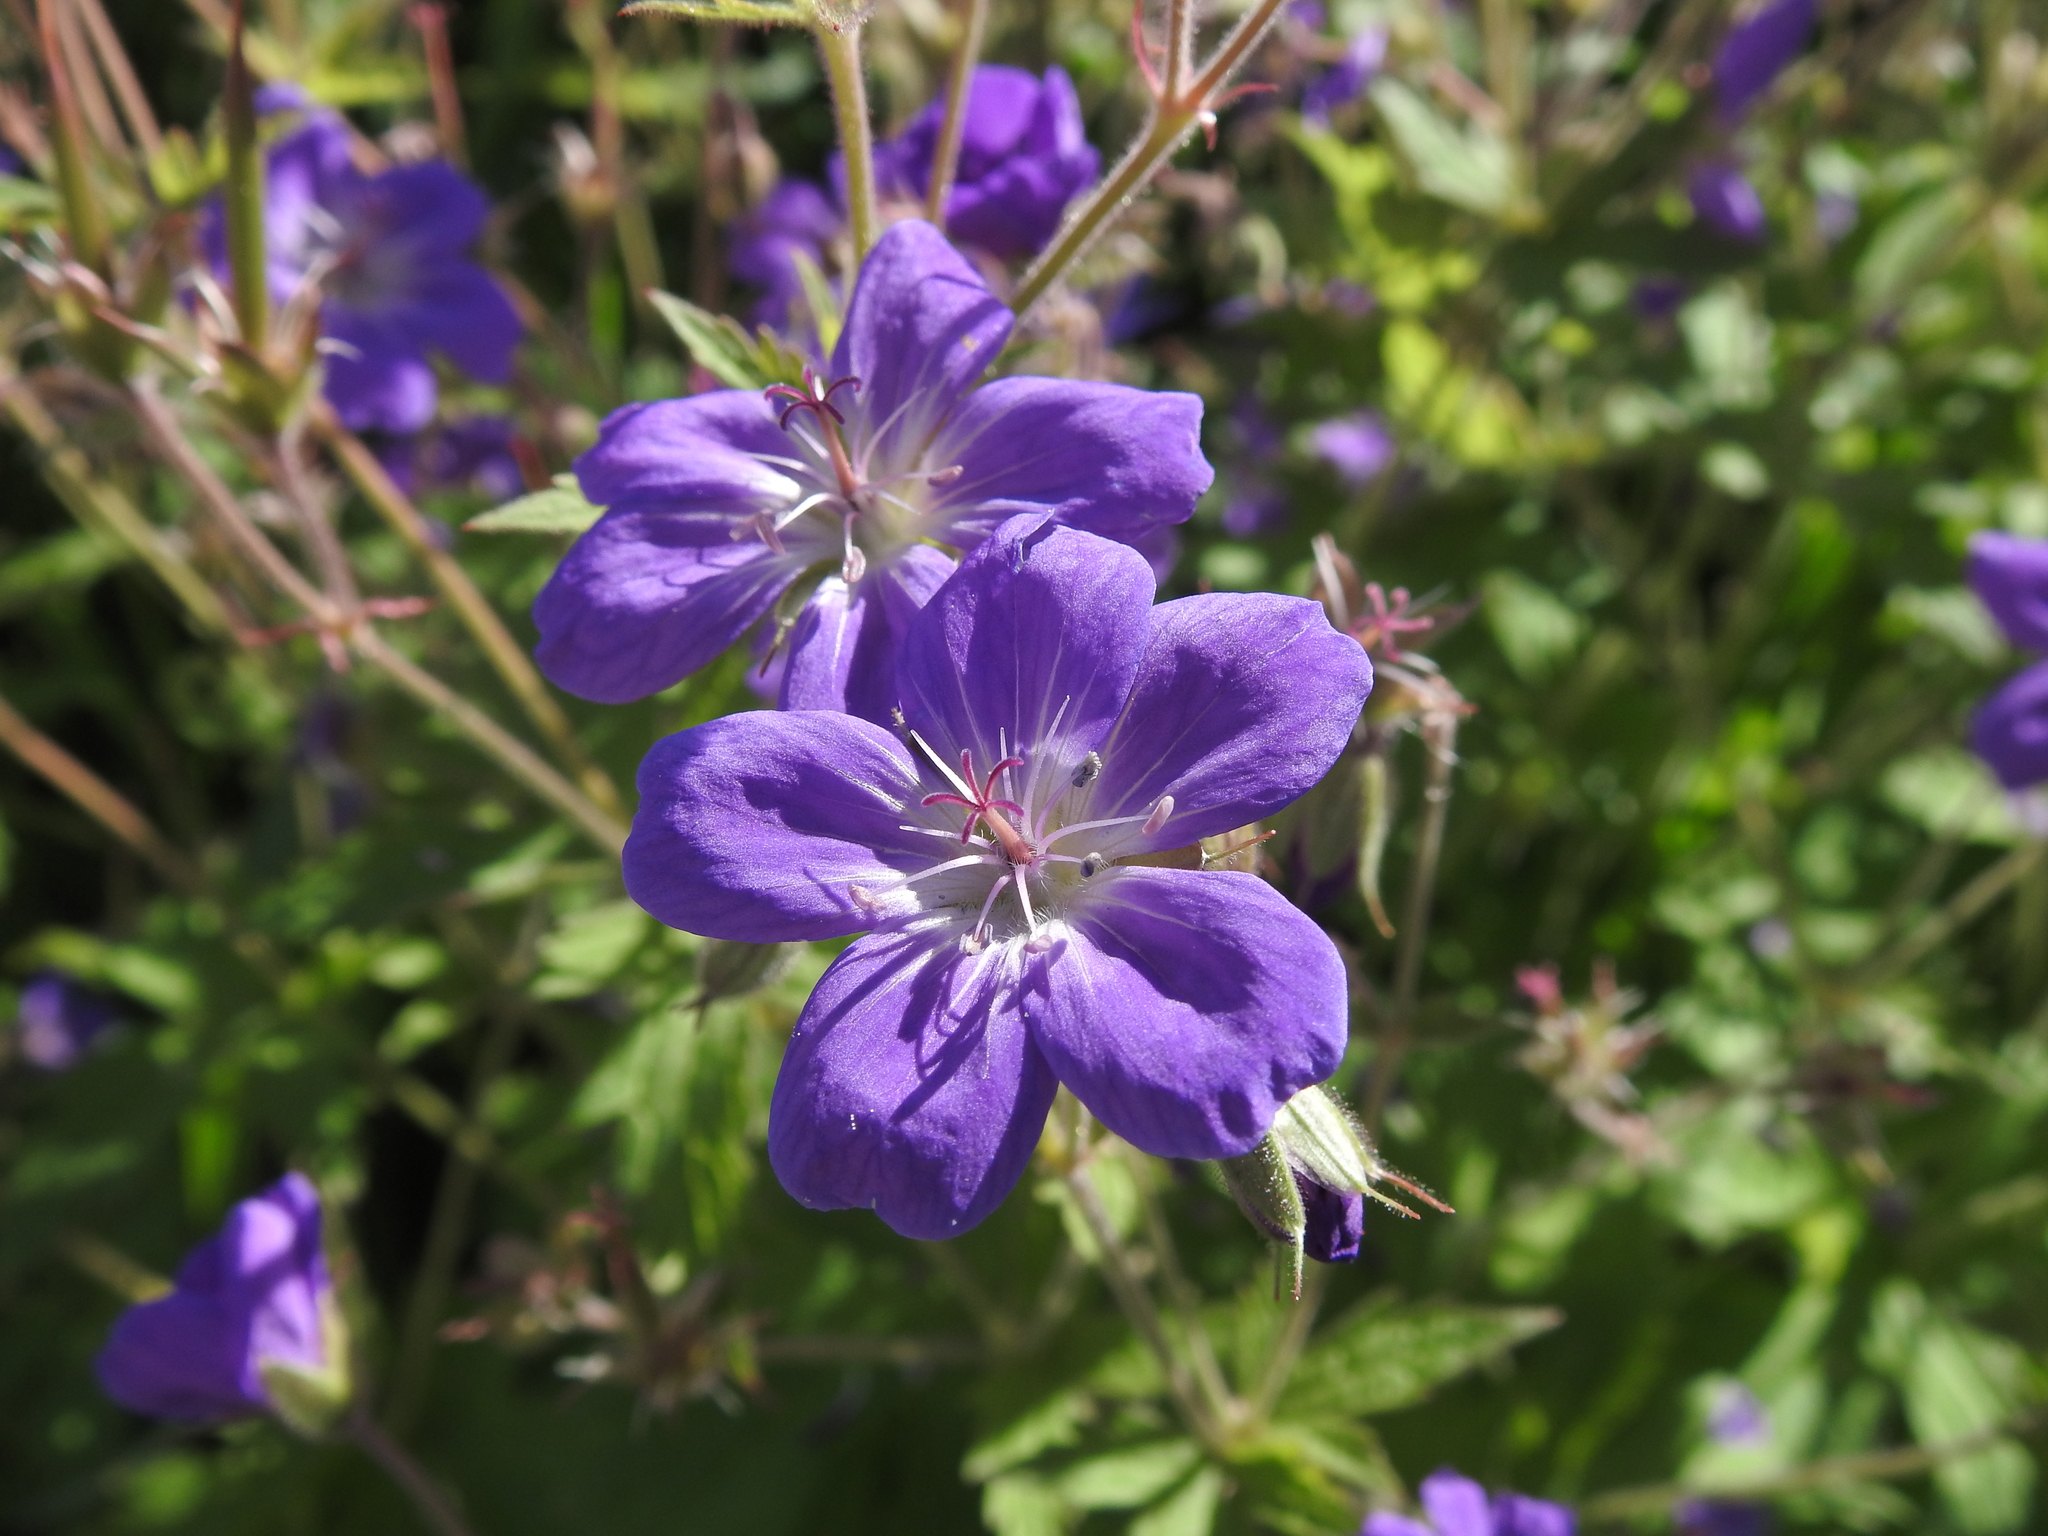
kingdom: Plantae
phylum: Tracheophyta
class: Magnoliopsida
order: Geraniales
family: Geraniaceae
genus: Geranium
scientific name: Geranium sylvaticum
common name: Wood crane's-bill
